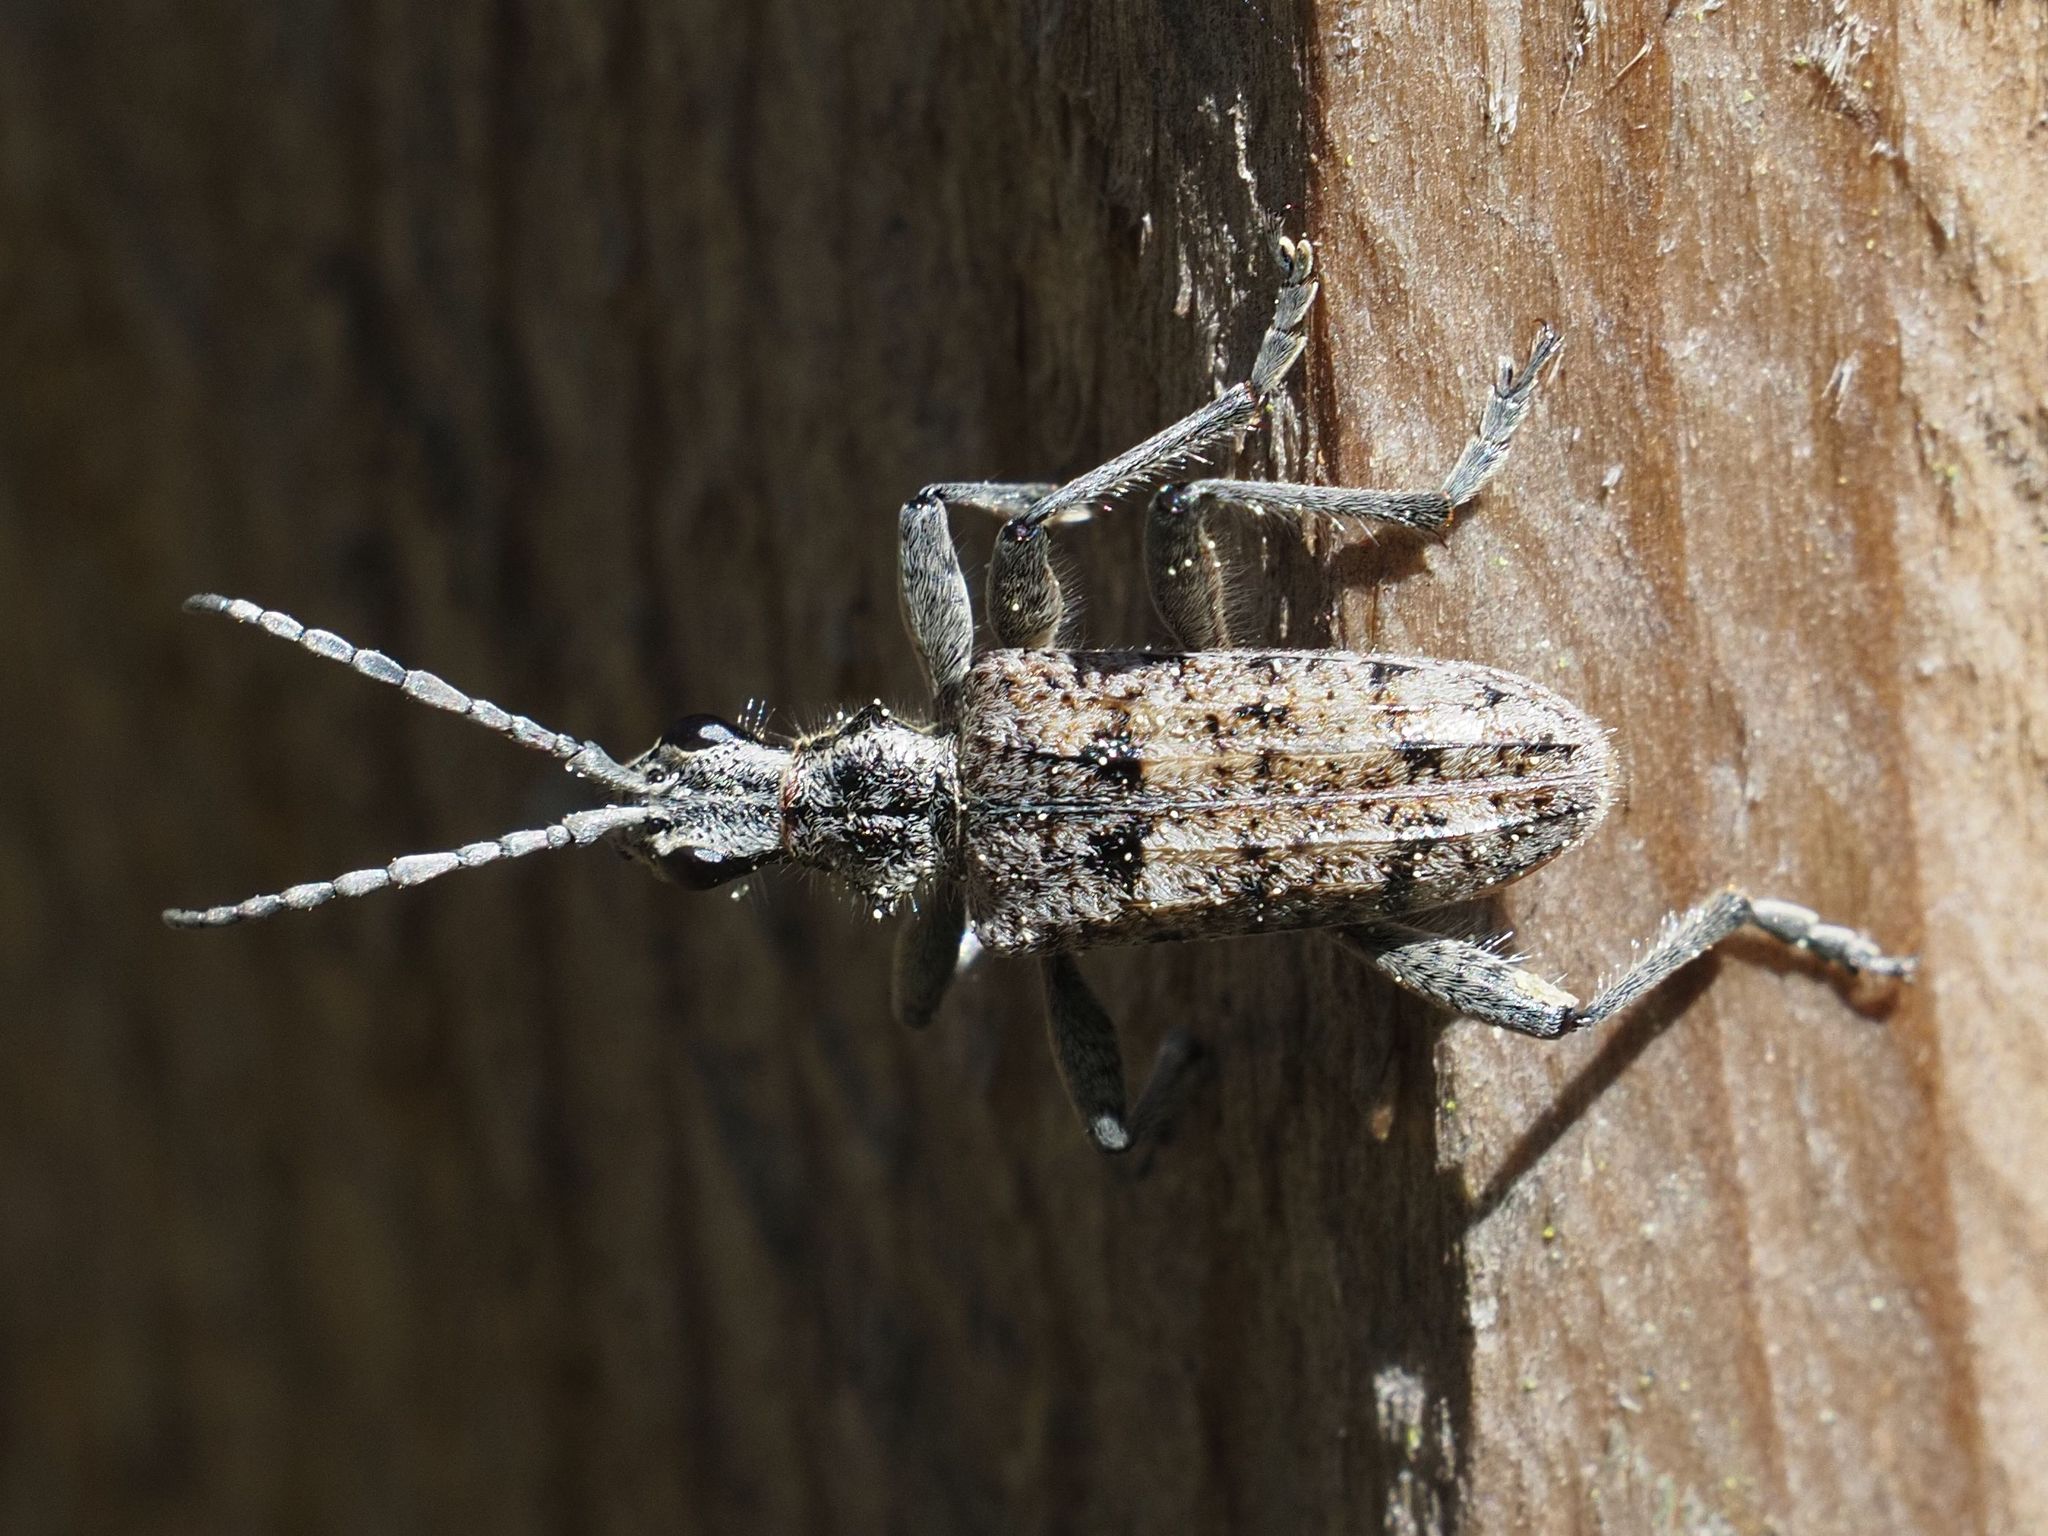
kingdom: Animalia
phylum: Arthropoda
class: Insecta
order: Coleoptera
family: Cerambycidae
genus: Rhagium
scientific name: Rhagium inquisitor
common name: Ribbed pine borer
